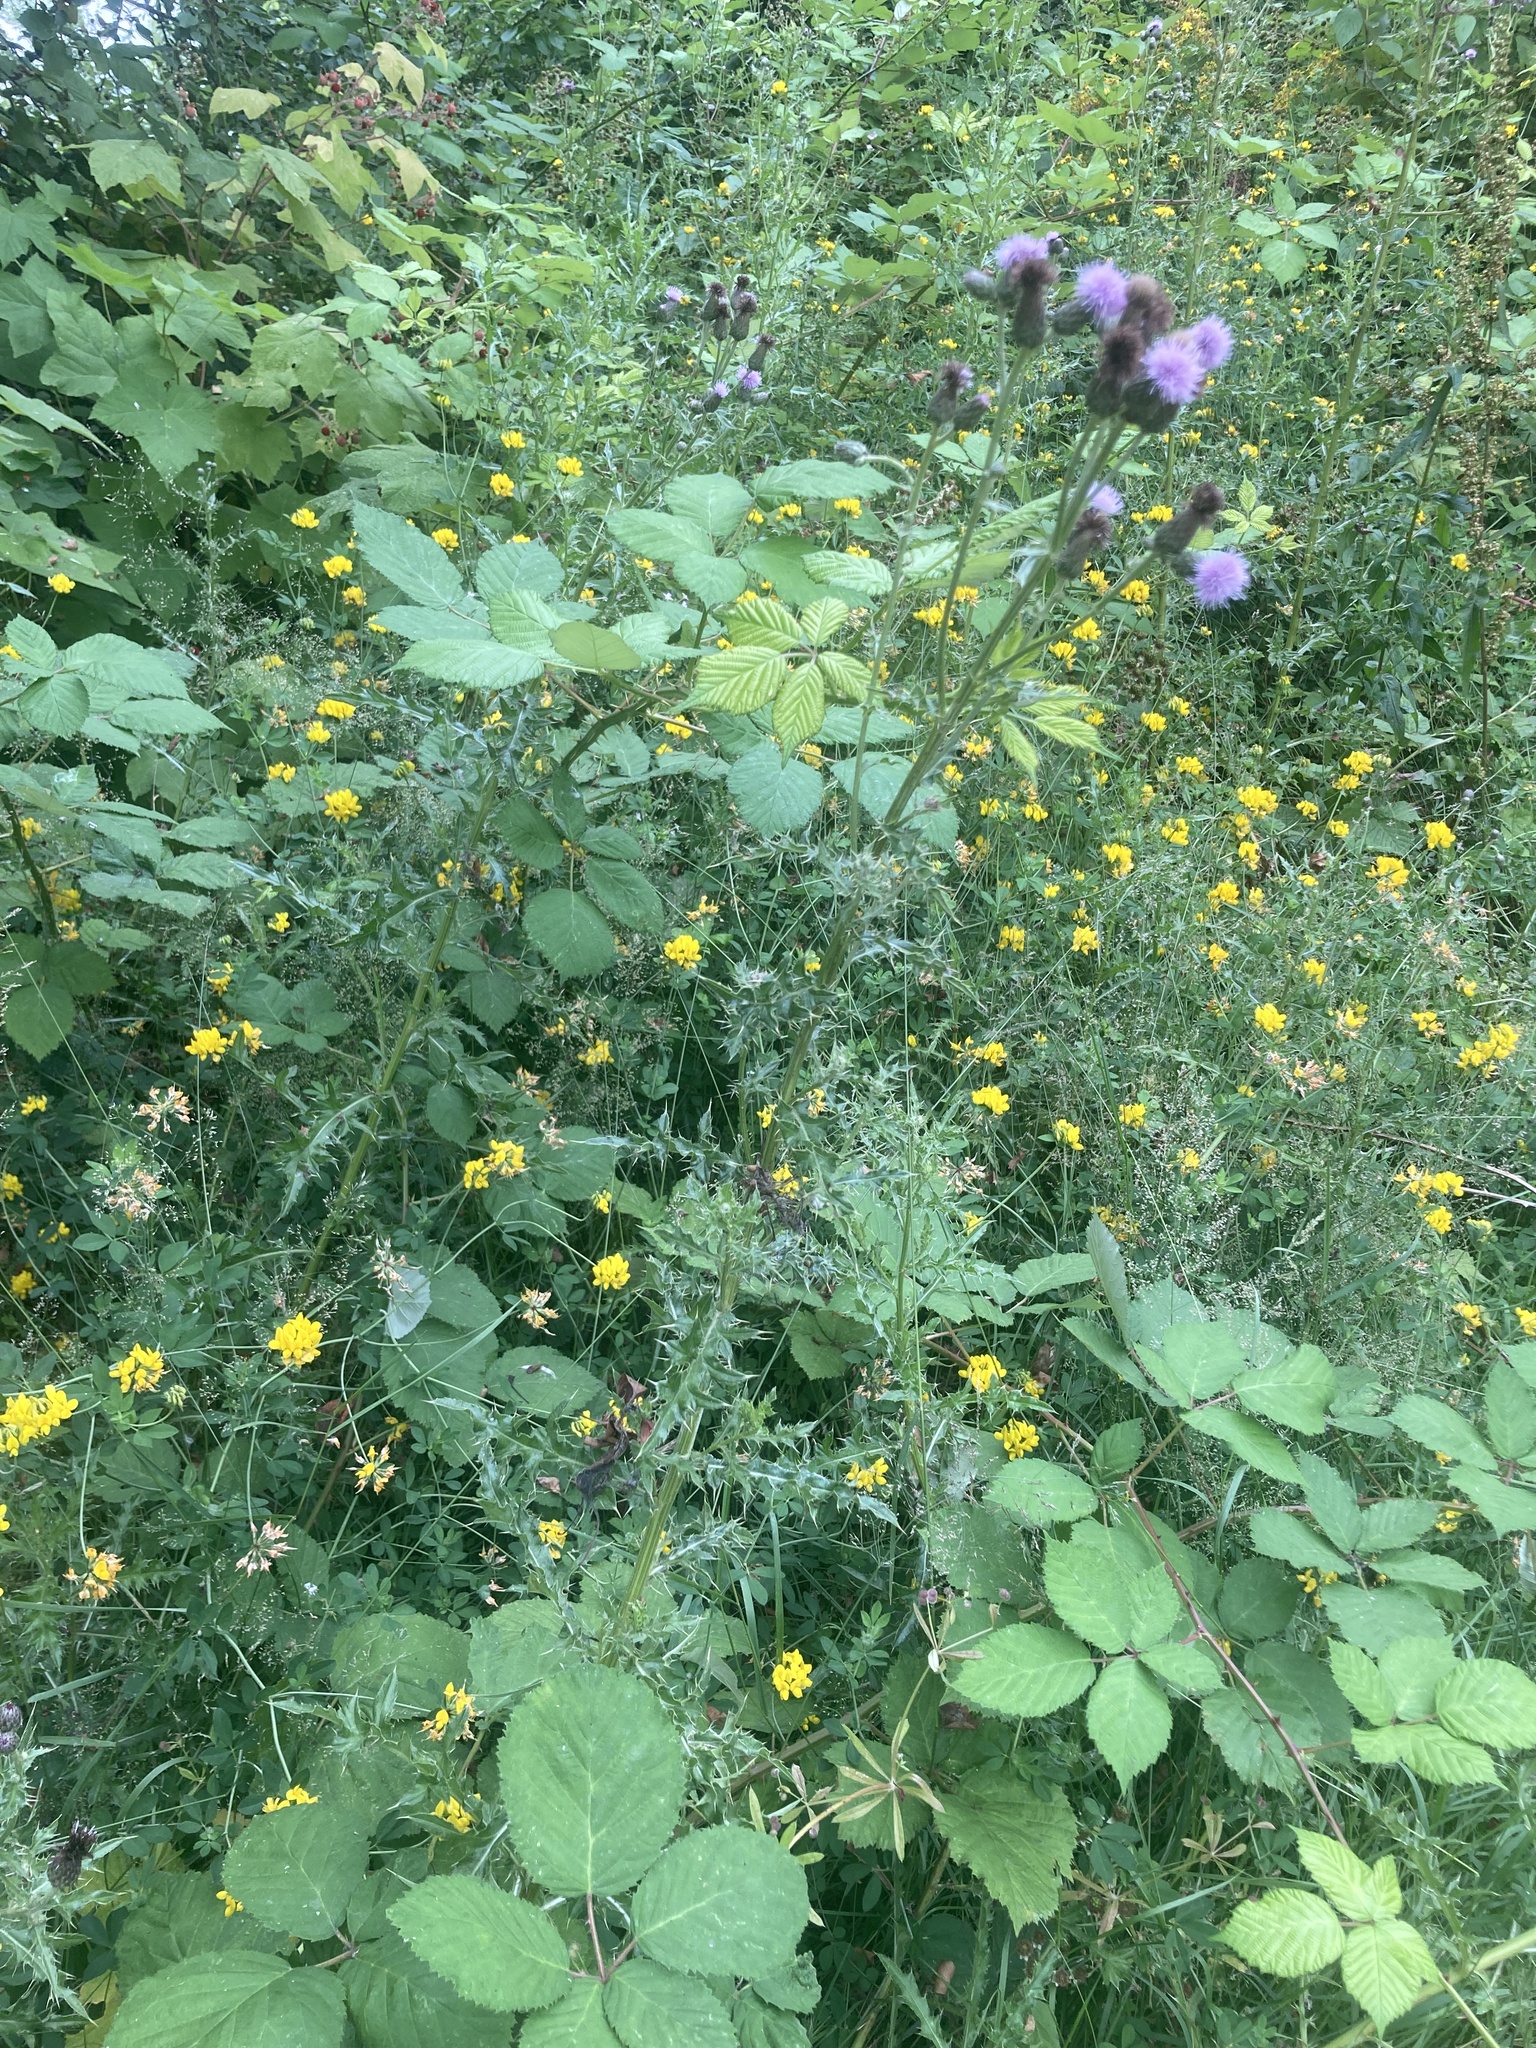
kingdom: Plantae
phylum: Tracheophyta
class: Magnoliopsida
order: Asterales
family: Asteraceae
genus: Cirsium
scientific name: Cirsium arvense
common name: Creeping thistle
